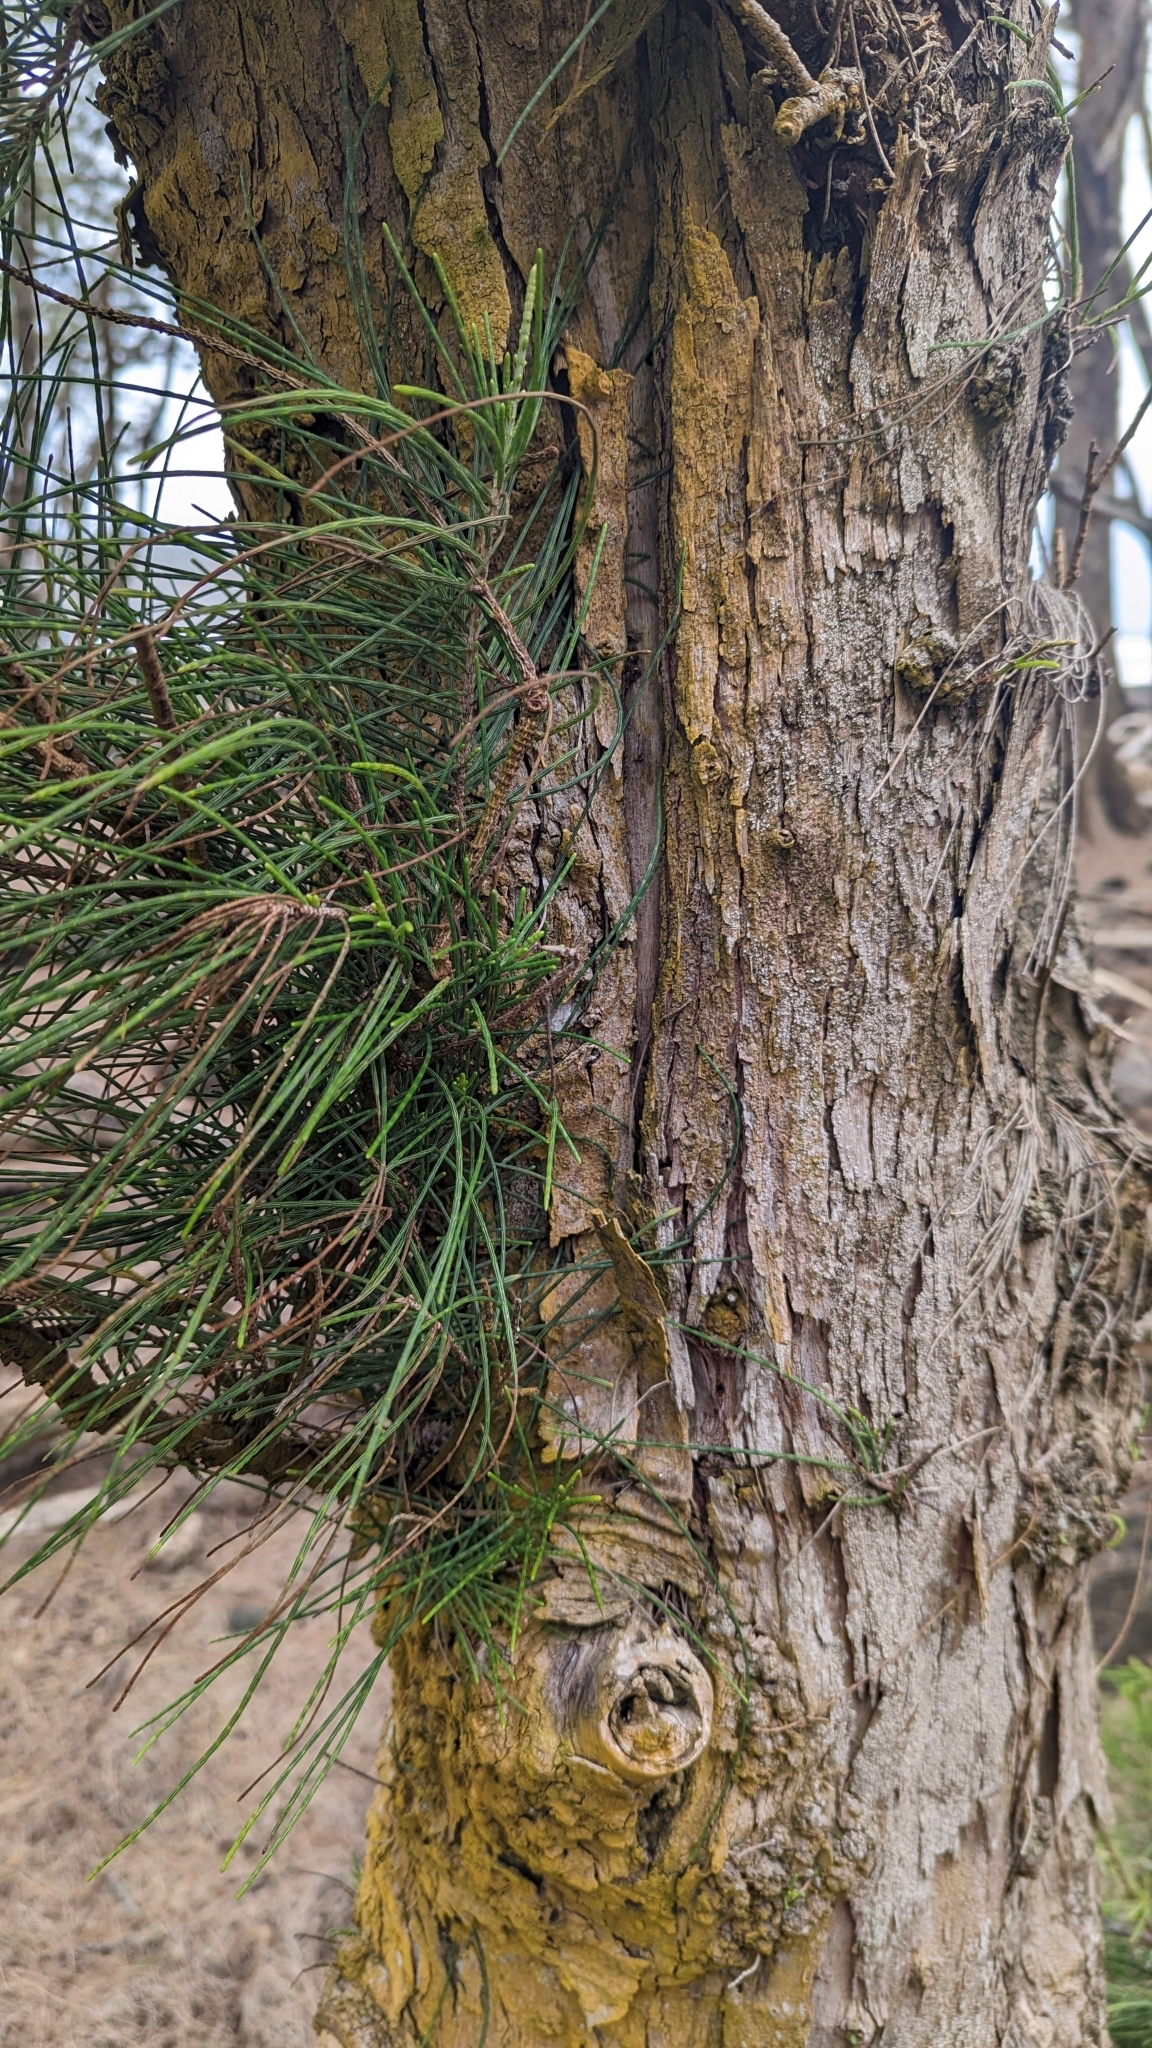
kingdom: Plantae
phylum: Tracheophyta
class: Magnoliopsida
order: Fagales
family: Casuarinaceae
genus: Casuarina
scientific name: Casuarina equisetifolia
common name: Beach sheoak
